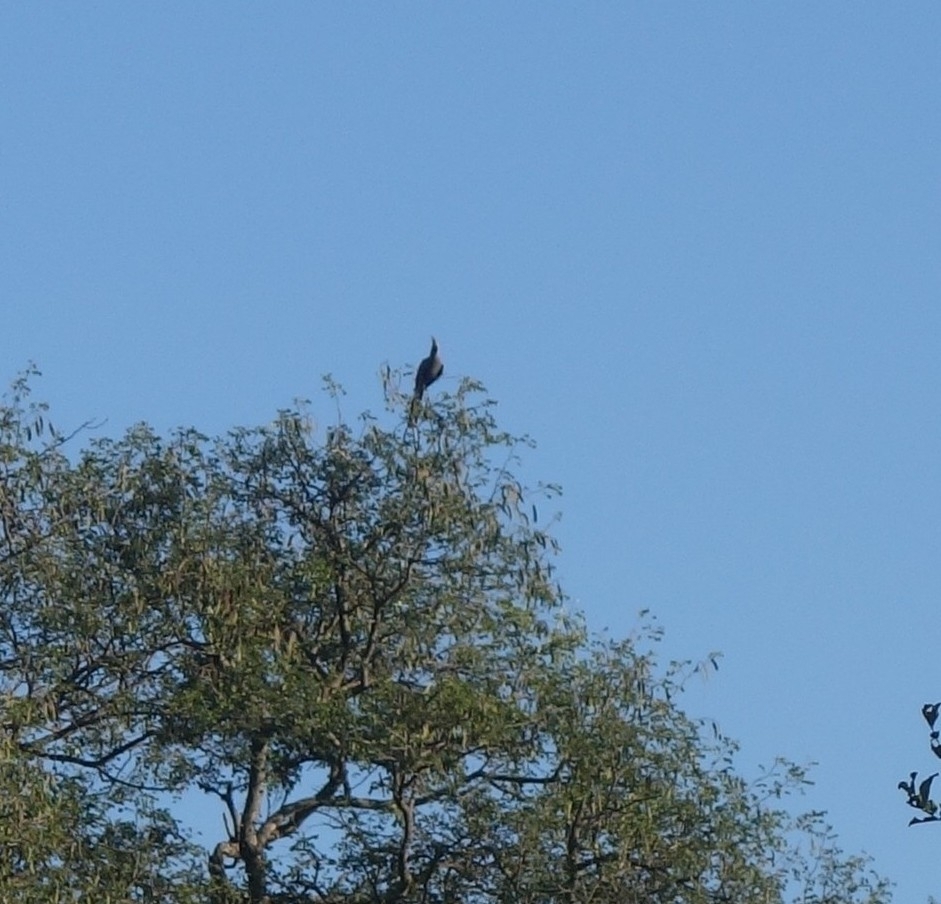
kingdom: Animalia
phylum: Chordata
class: Aves
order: Musophagiformes
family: Musophagidae
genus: Corythaixoides
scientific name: Corythaixoides concolor
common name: Grey go-away-bird
